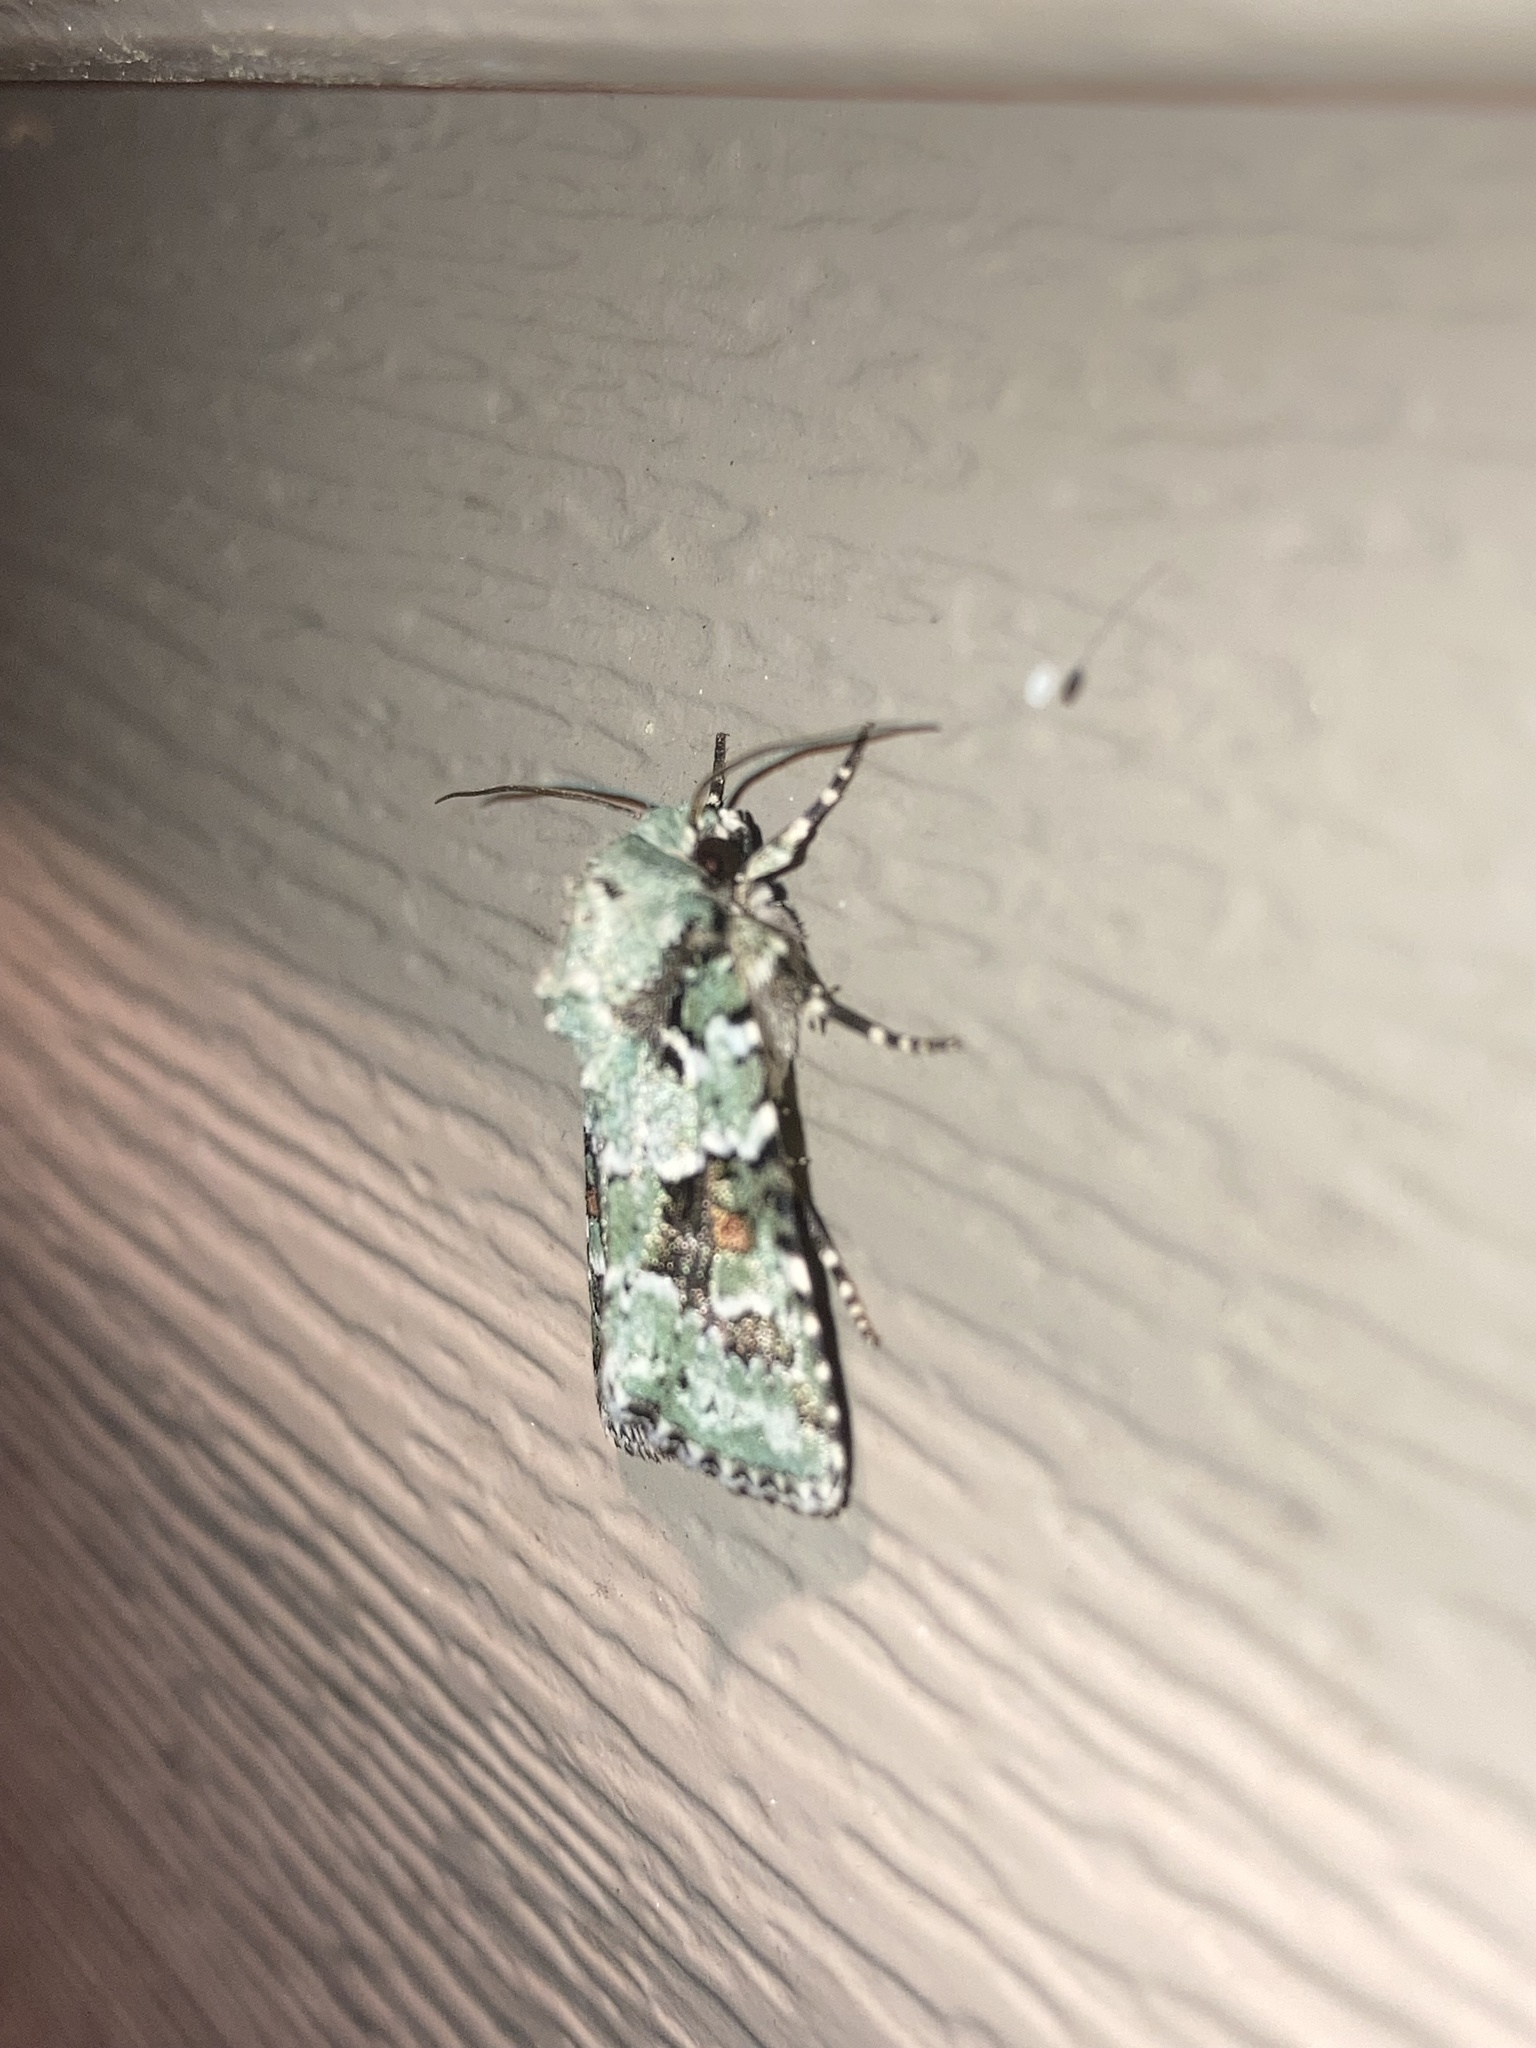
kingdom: Animalia
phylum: Arthropoda
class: Insecta
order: Lepidoptera
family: Noctuidae
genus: Lacinipolia
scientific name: Lacinipolia implicata
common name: Implicit arches
